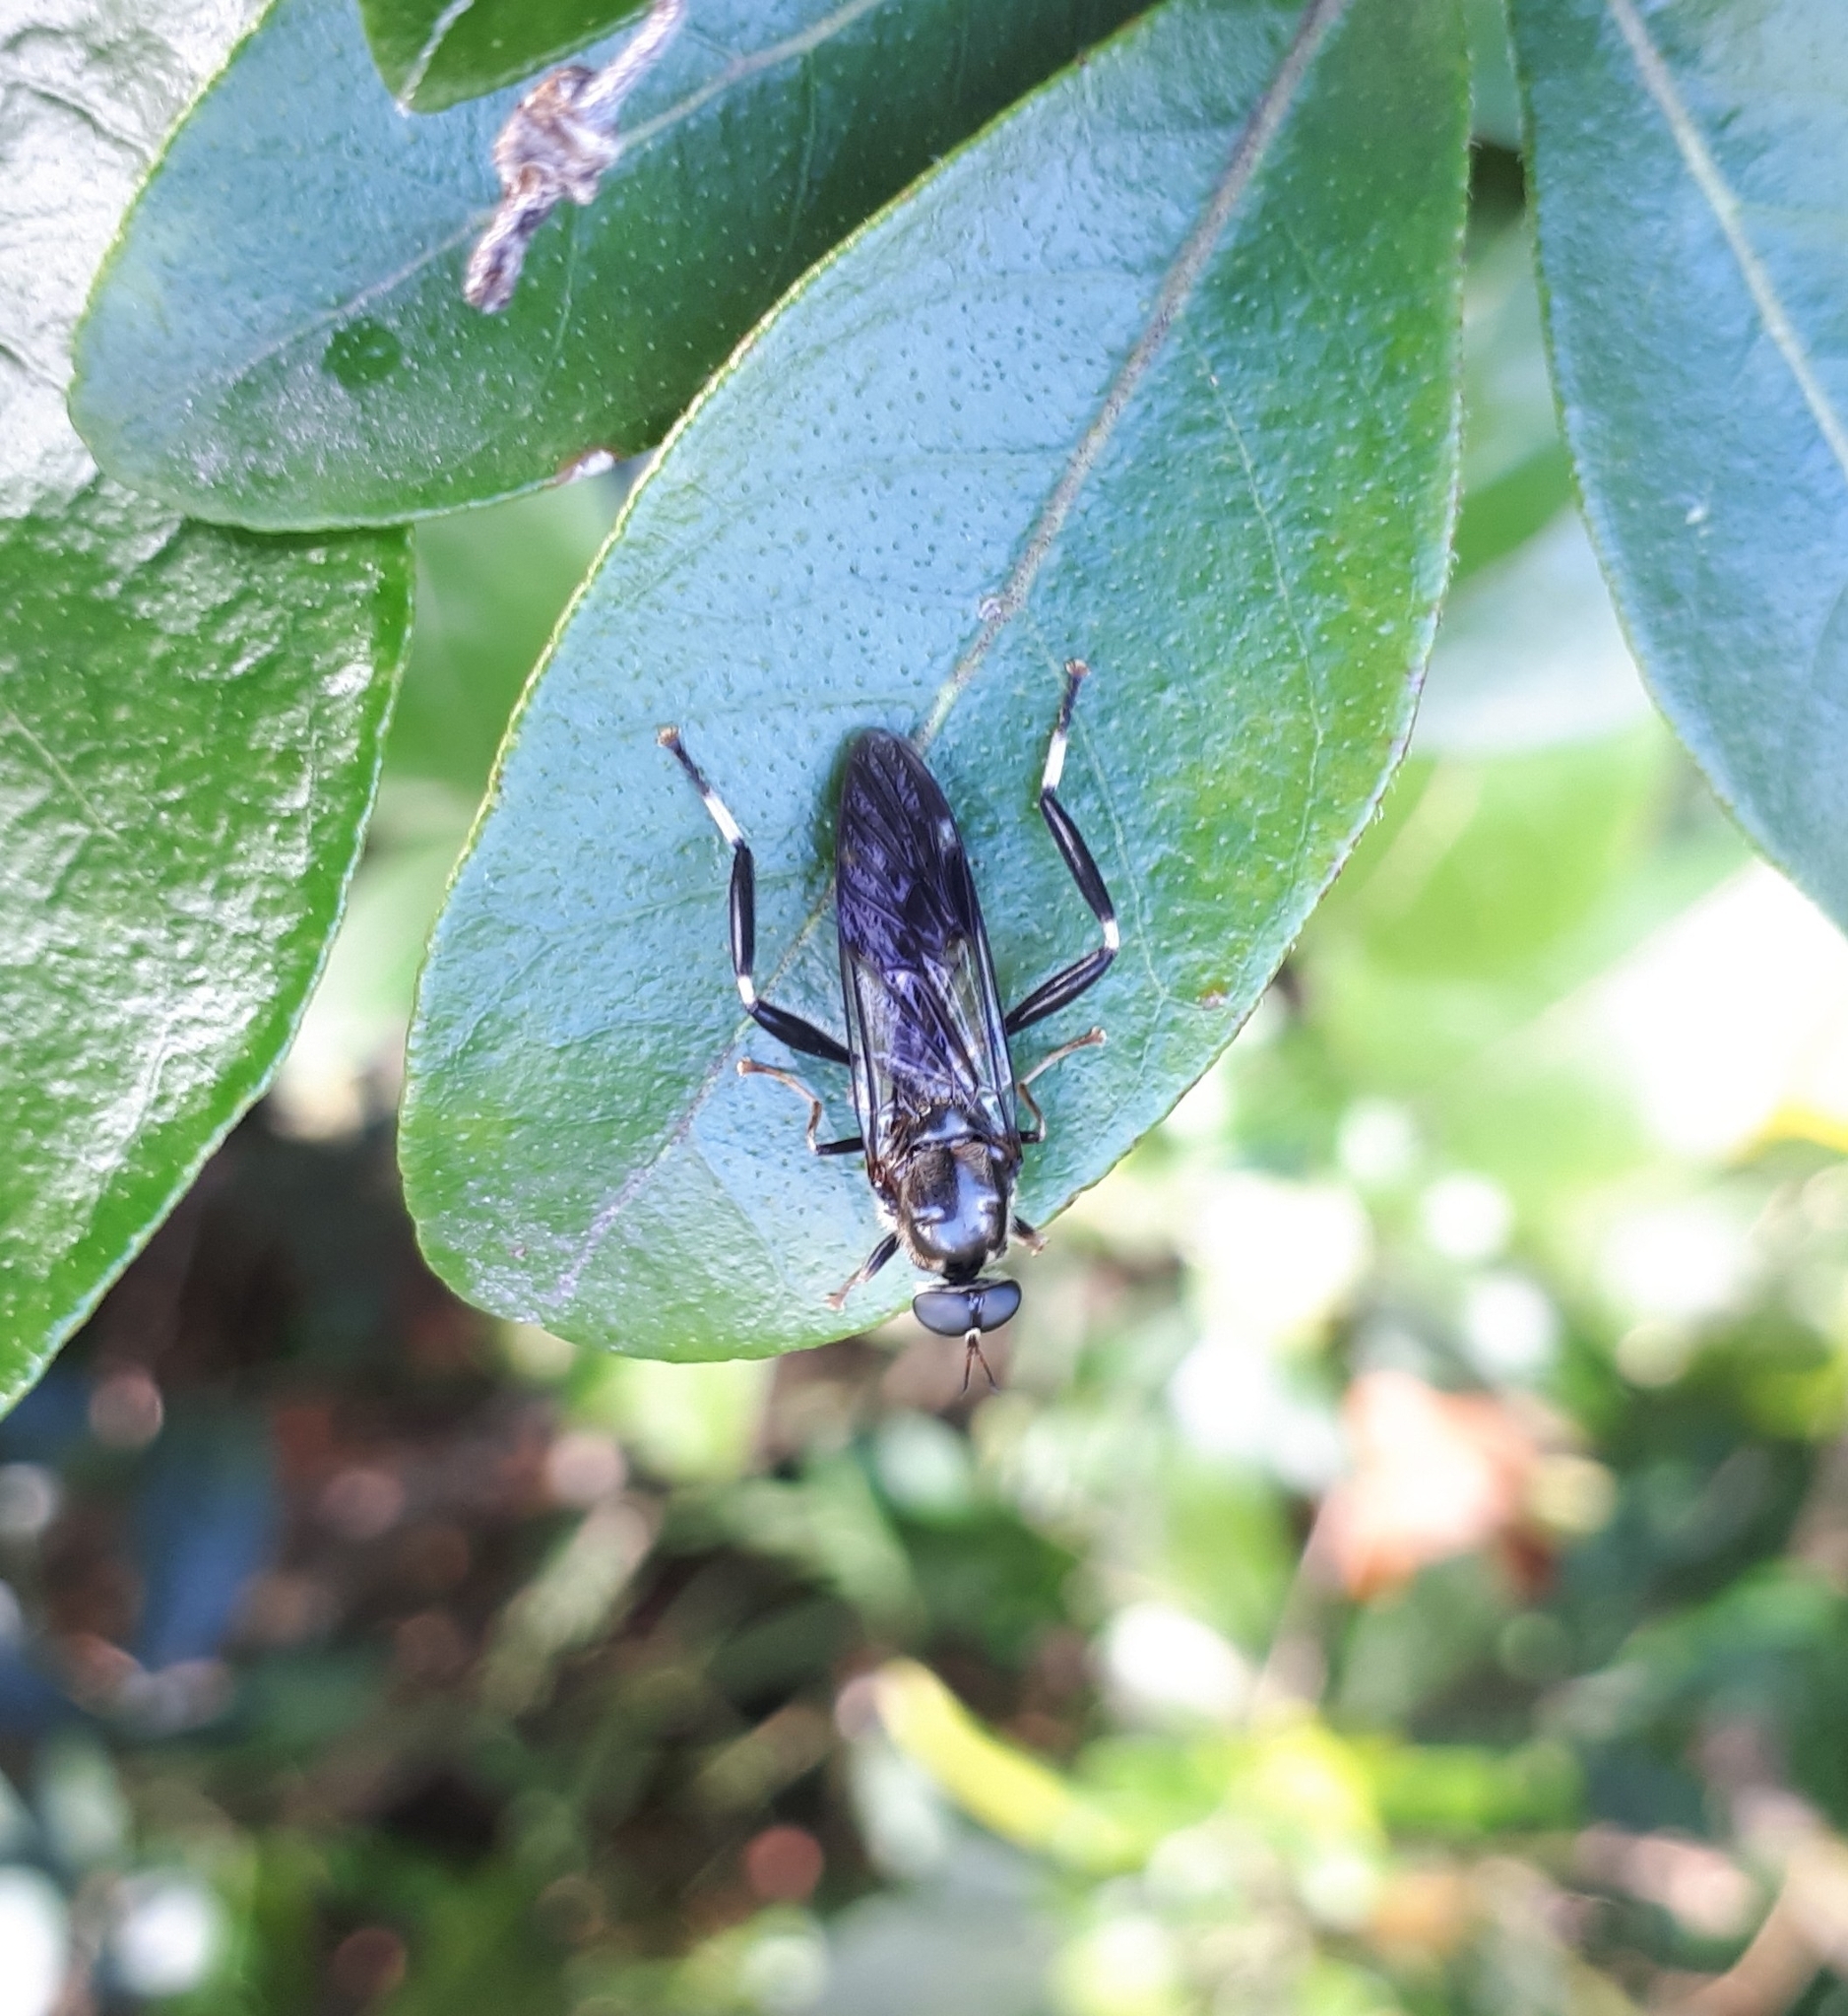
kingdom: Animalia
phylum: Arthropoda
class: Insecta
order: Diptera
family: Stratiomyidae
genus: Exaireta
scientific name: Exaireta spinigera
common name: Blue soldier fly
